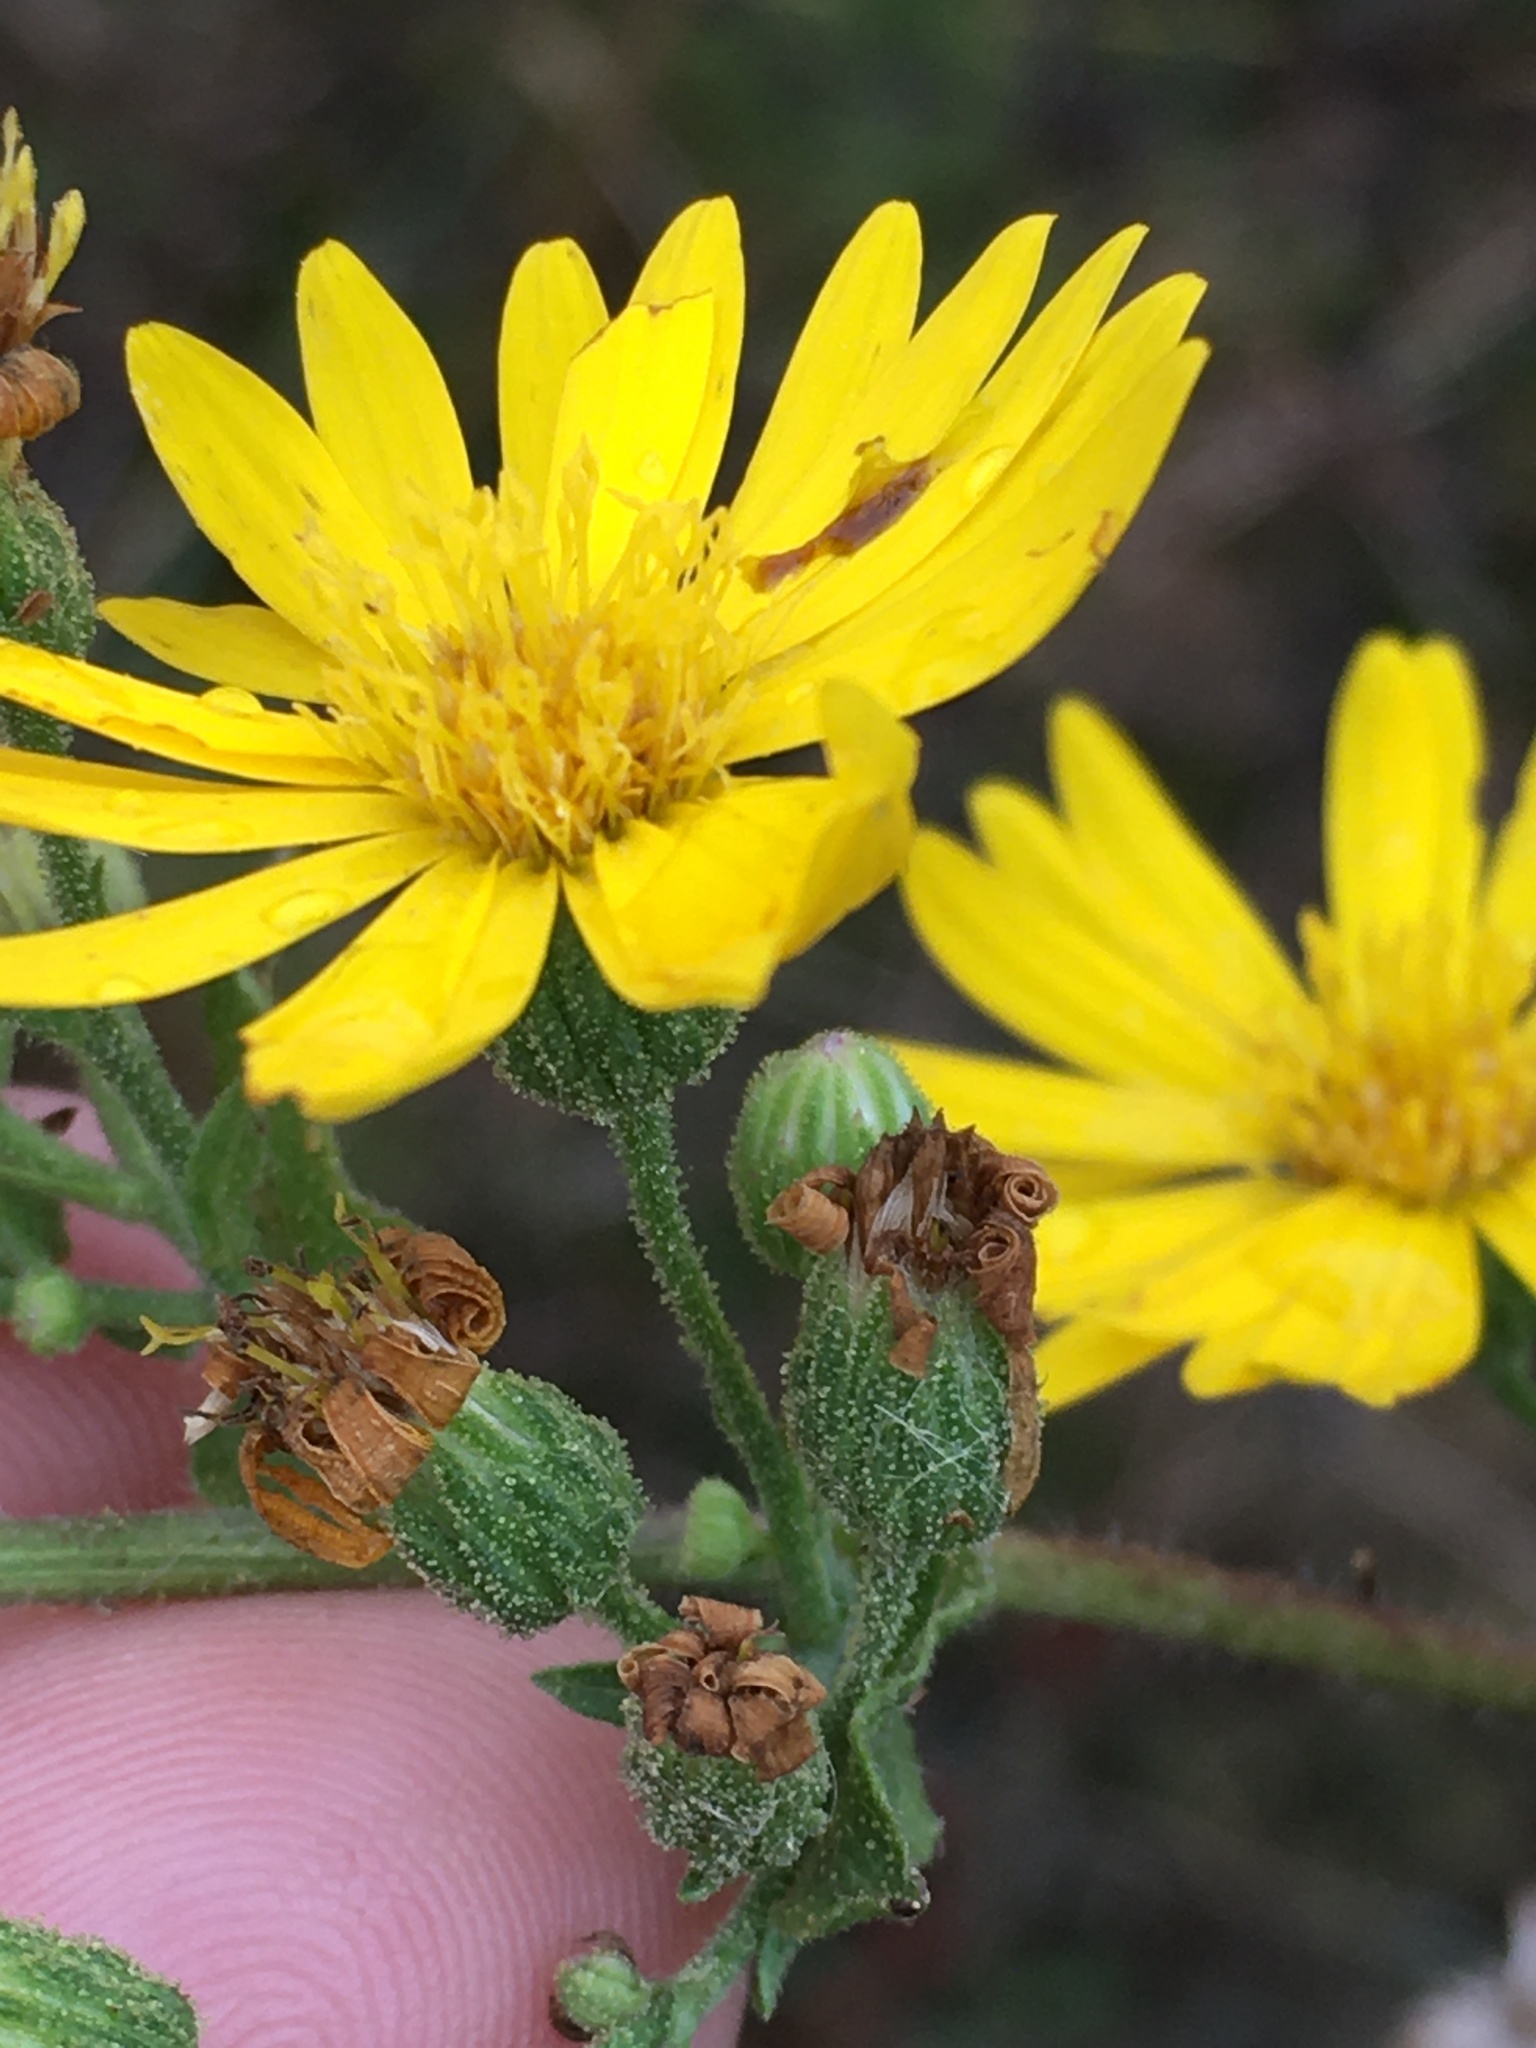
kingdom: Plantae
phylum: Tracheophyta
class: Magnoliopsida
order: Asterales
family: Asteraceae
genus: Heterotheca
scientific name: Heterotheca subaxillaris
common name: Camphorweed
